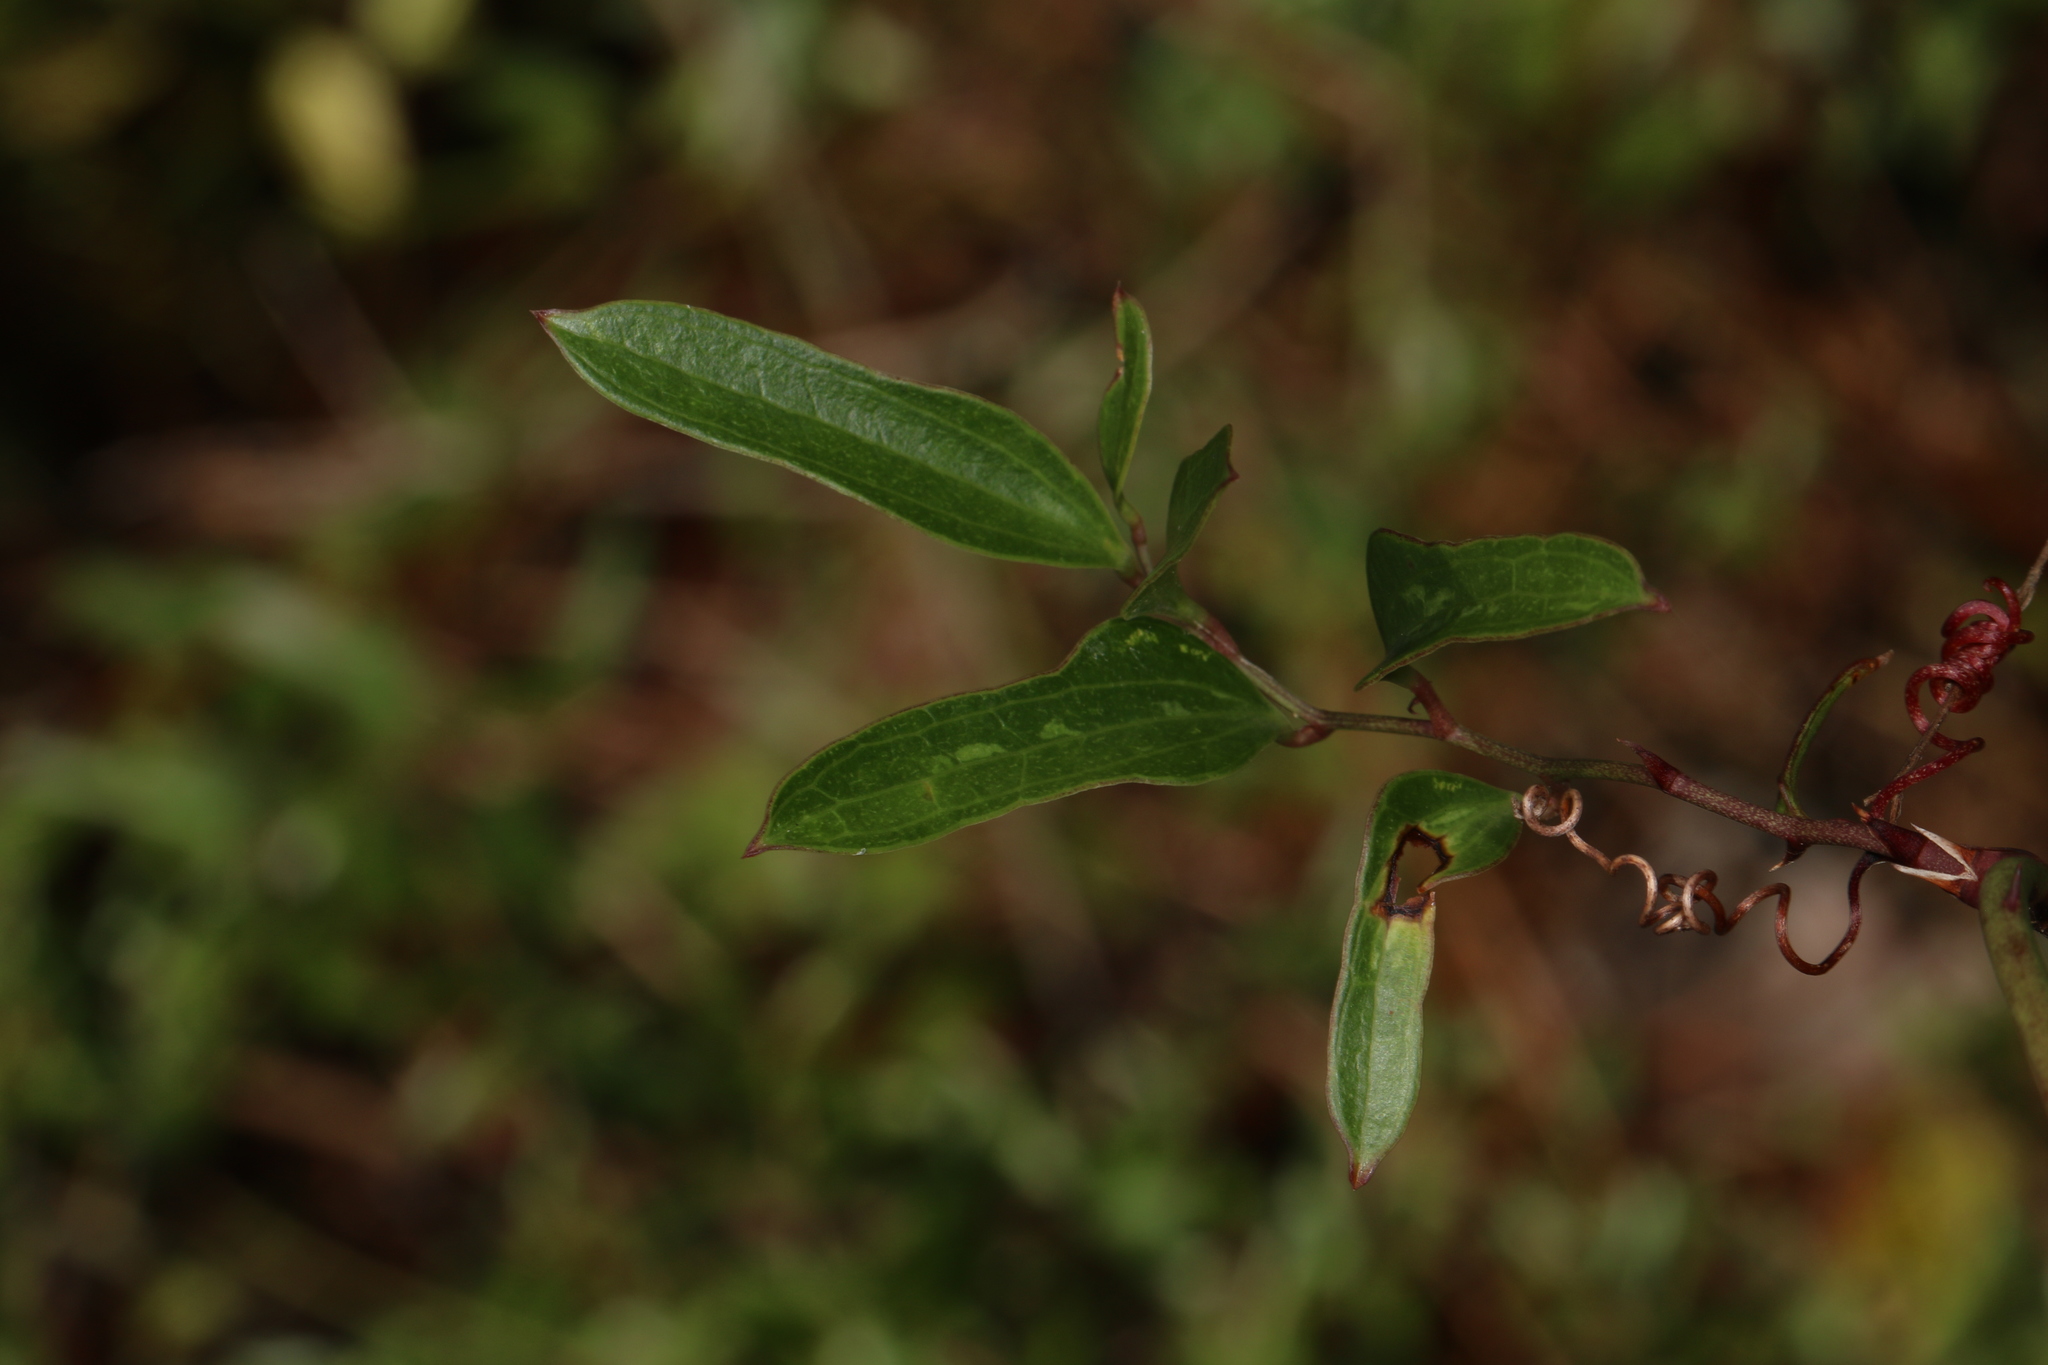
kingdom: Plantae
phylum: Tracheophyta
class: Liliopsida
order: Liliales
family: Smilacaceae
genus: Smilax
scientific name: Smilax auriculata
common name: Wild bamboo
